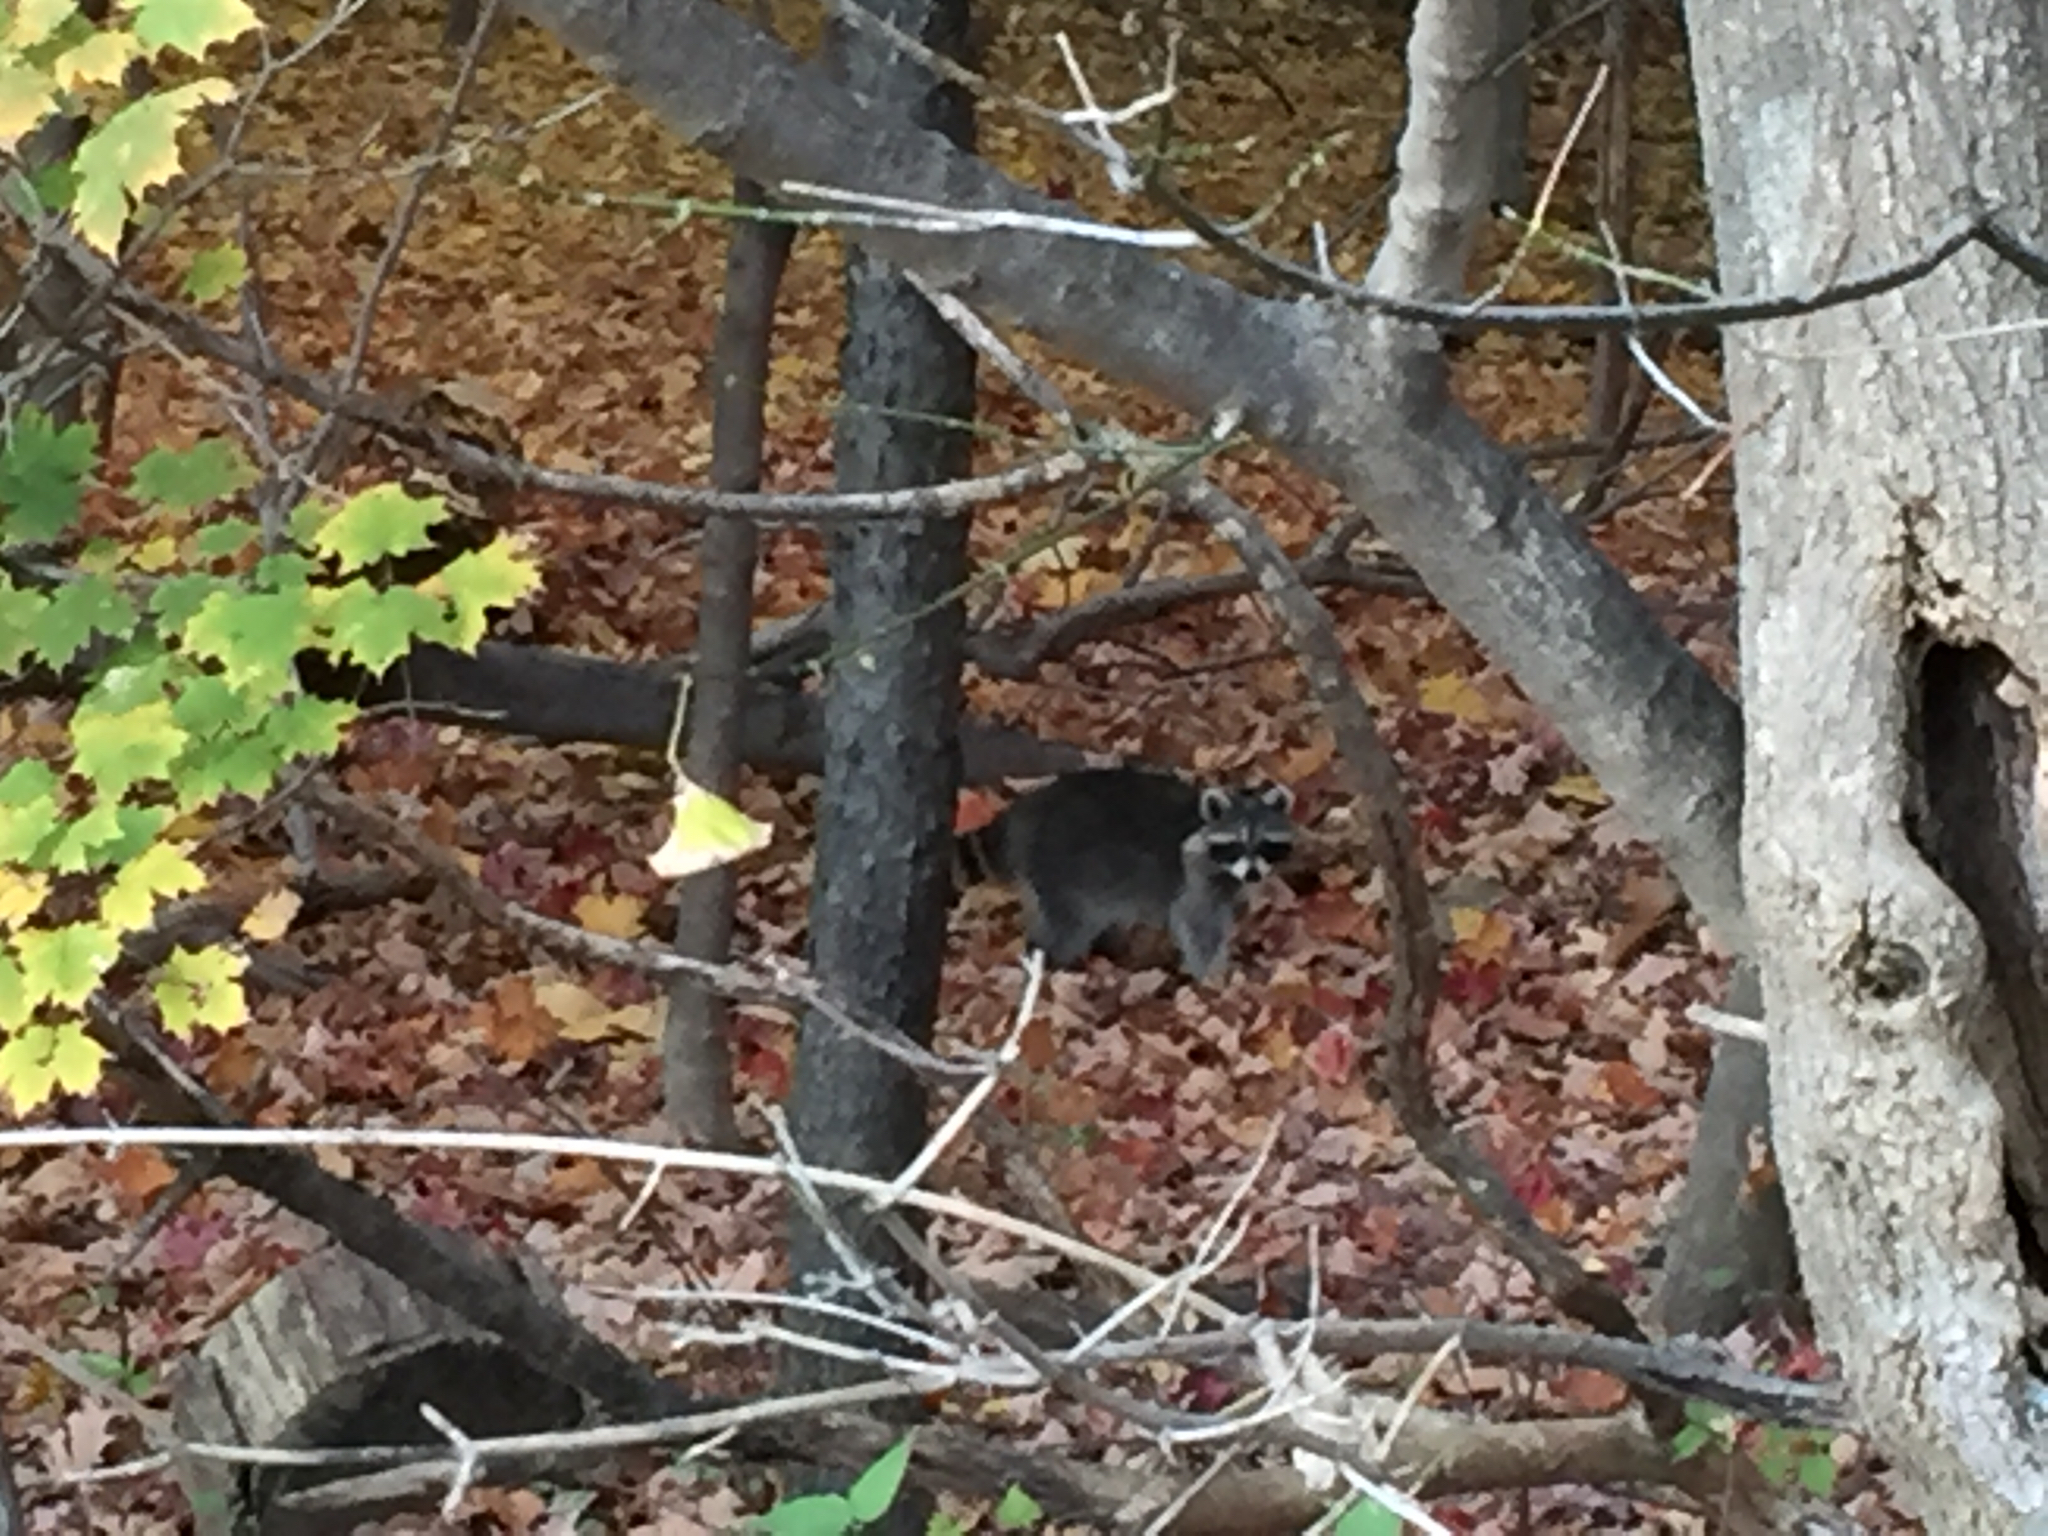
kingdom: Animalia
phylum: Chordata
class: Mammalia
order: Carnivora
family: Procyonidae
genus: Procyon
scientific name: Procyon lotor
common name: Raccoon
